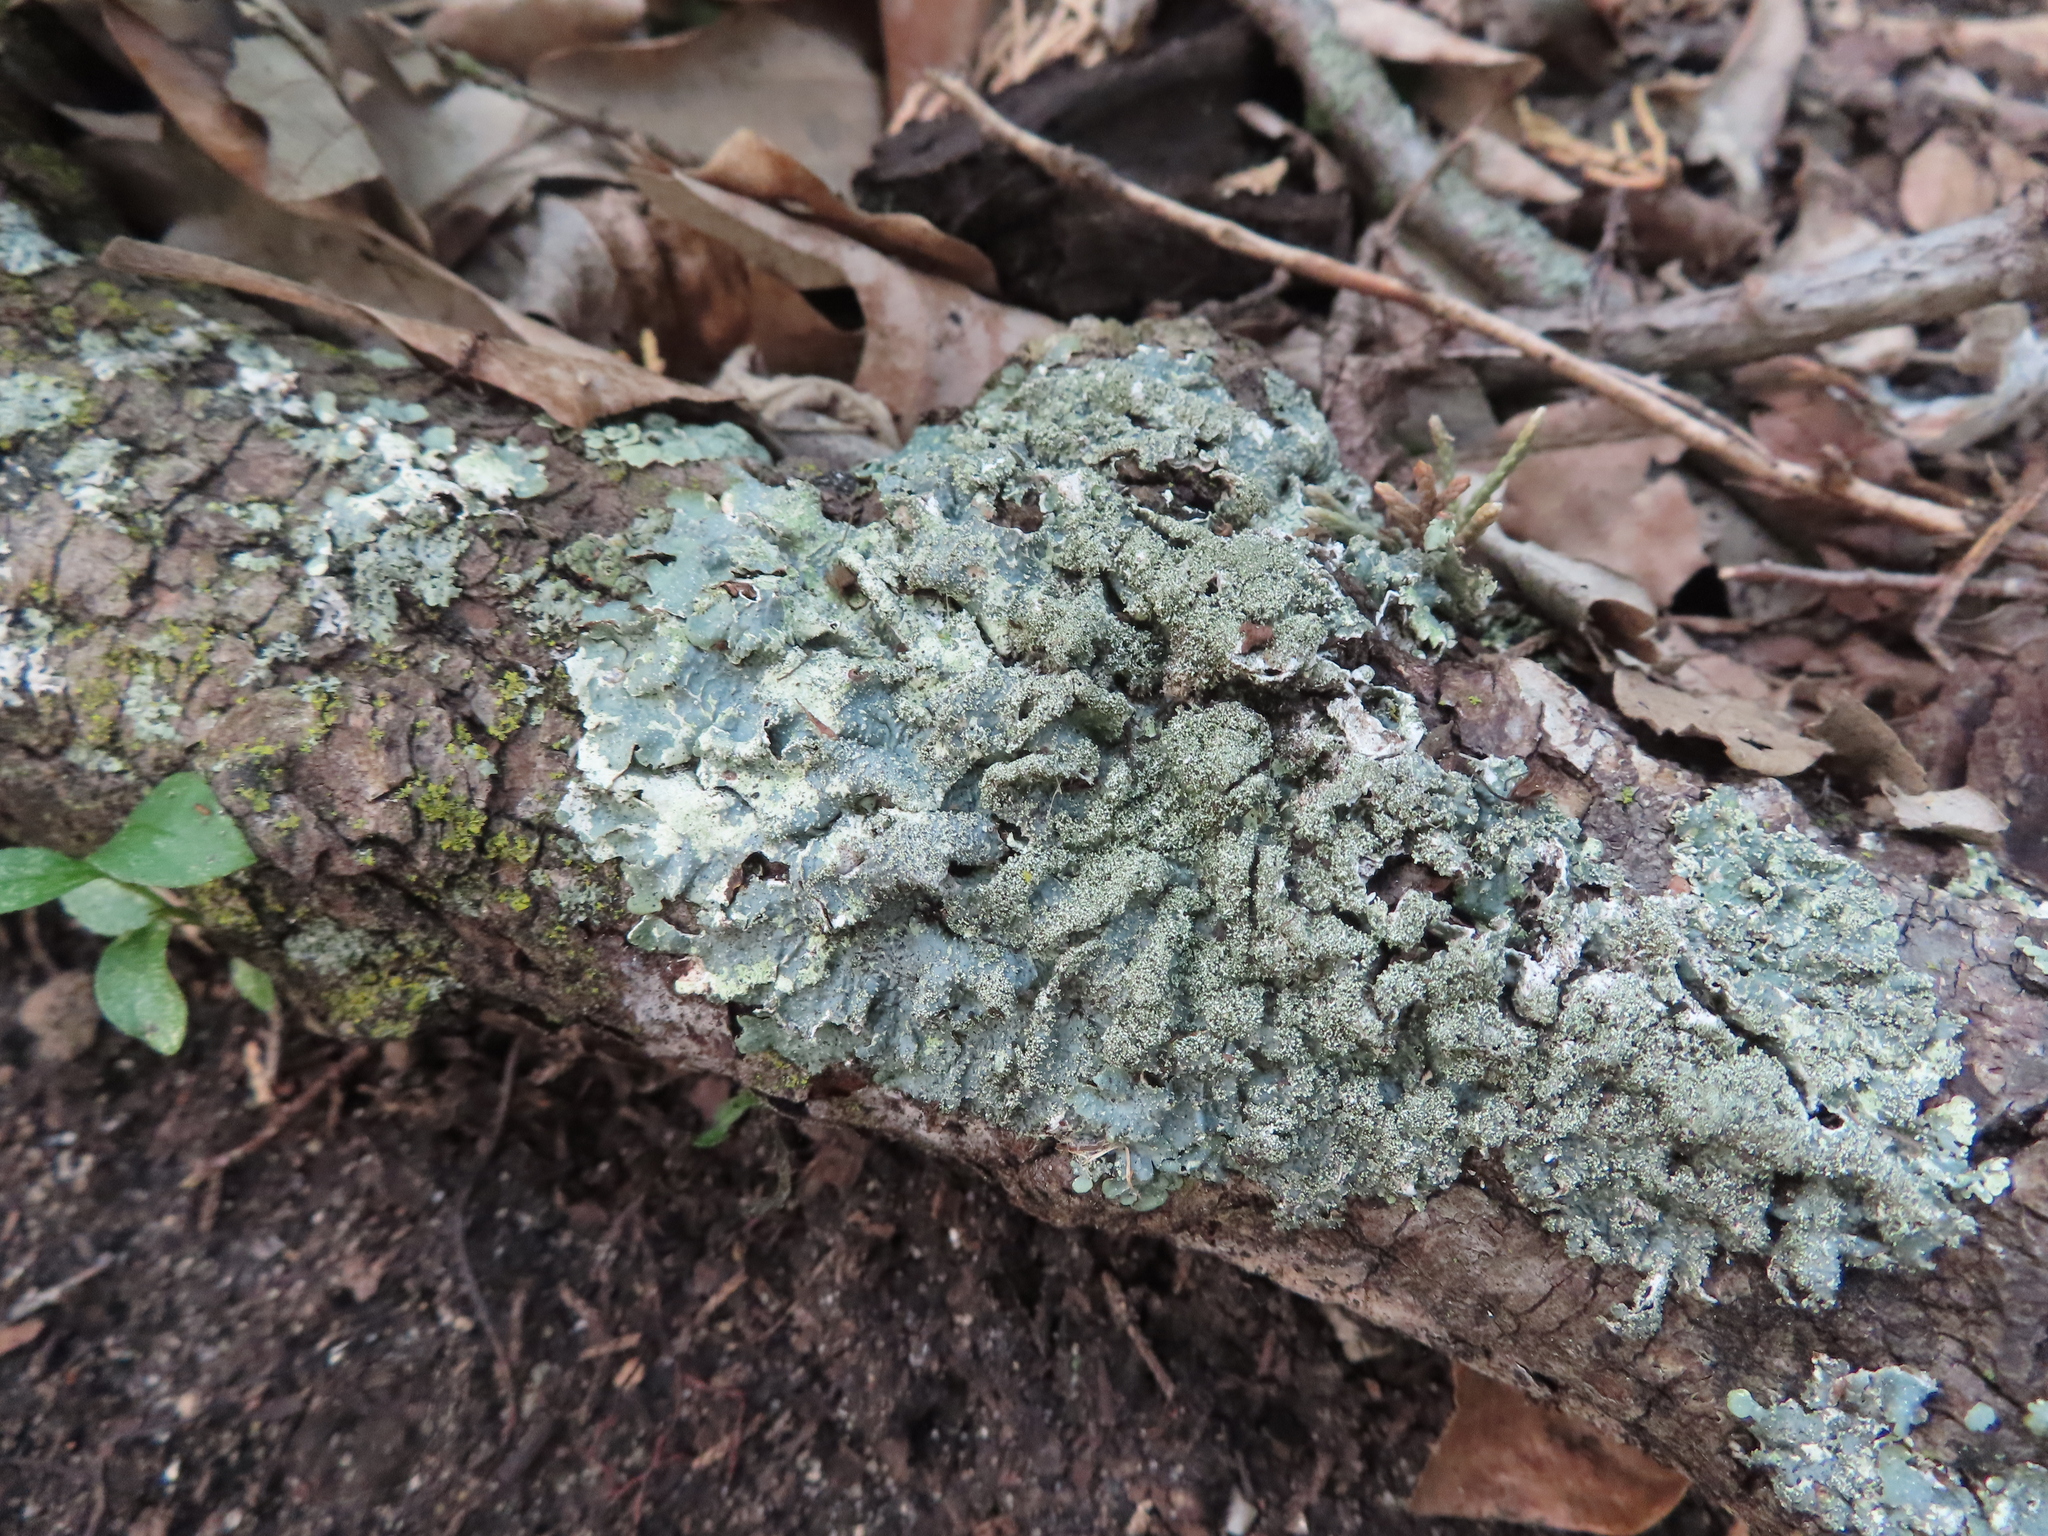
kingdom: Fungi
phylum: Ascomycota
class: Lecanoromycetes
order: Lecanorales
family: Parmeliaceae
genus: Punctelia
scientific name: Punctelia rudecta
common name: Rough speckled shield lichen
